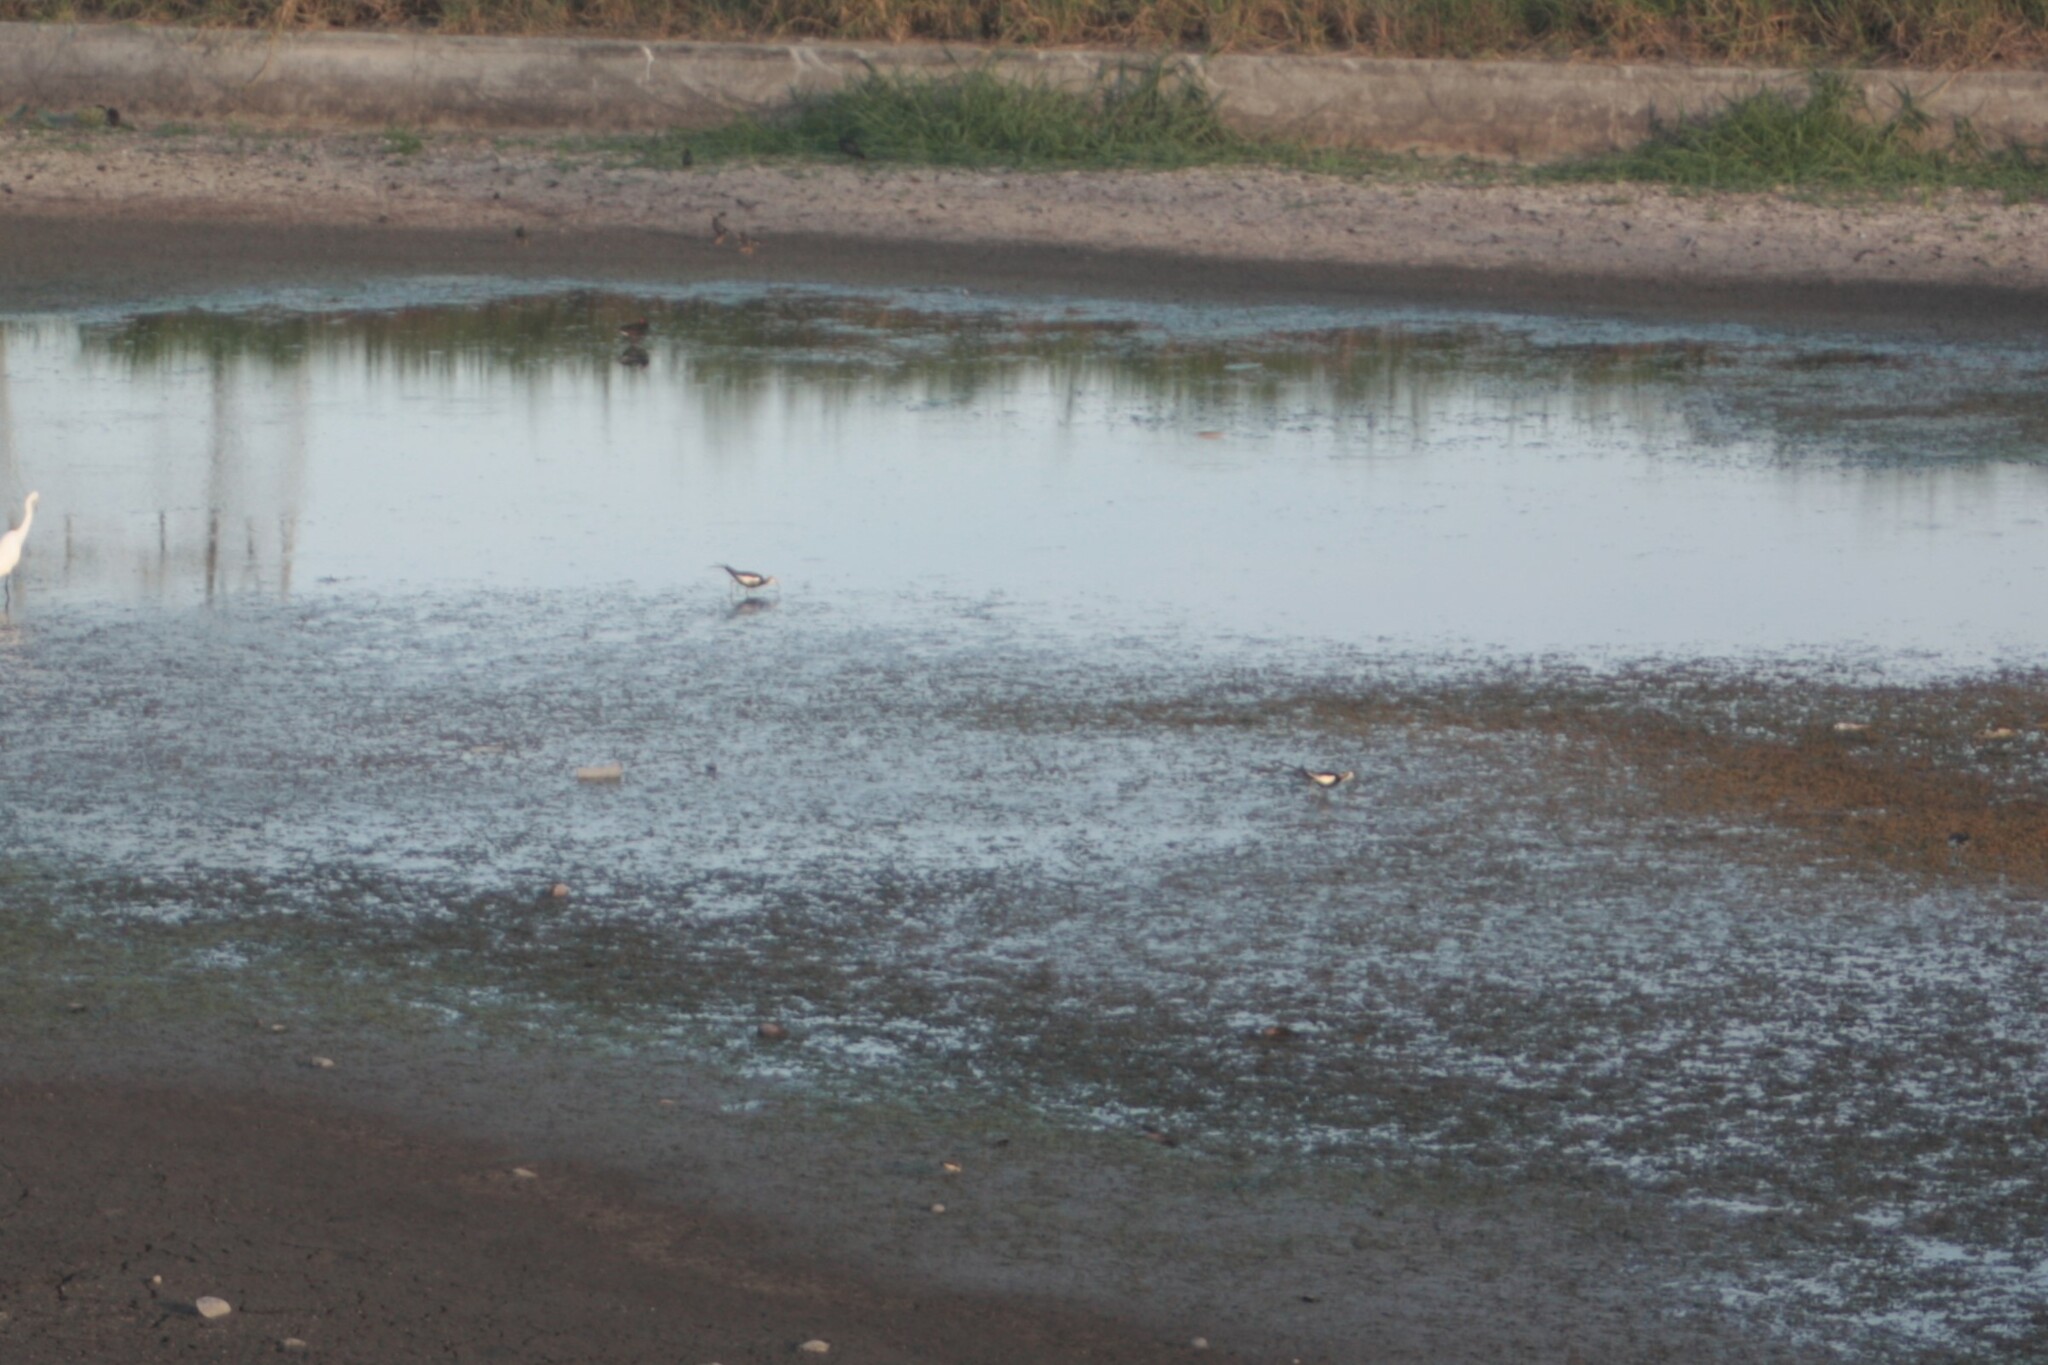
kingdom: Animalia
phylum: Chordata
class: Aves
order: Charadriiformes
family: Jacanidae
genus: Hydrophasianus
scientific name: Hydrophasianus chirurgus
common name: Pheasant-tailed jacana
